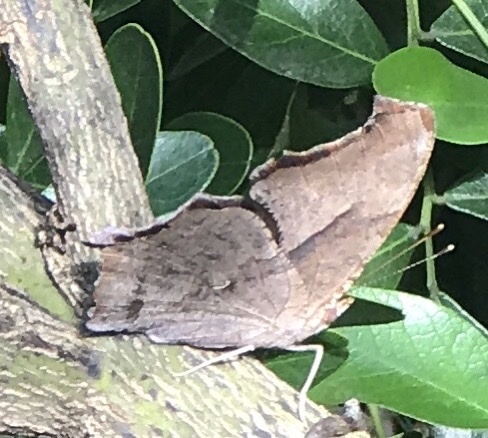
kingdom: Animalia
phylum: Arthropoda
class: Insecta
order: Lepidoptera
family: Nymphalidae
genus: Polygonia
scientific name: Polygonia interrogationis
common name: Question mark
